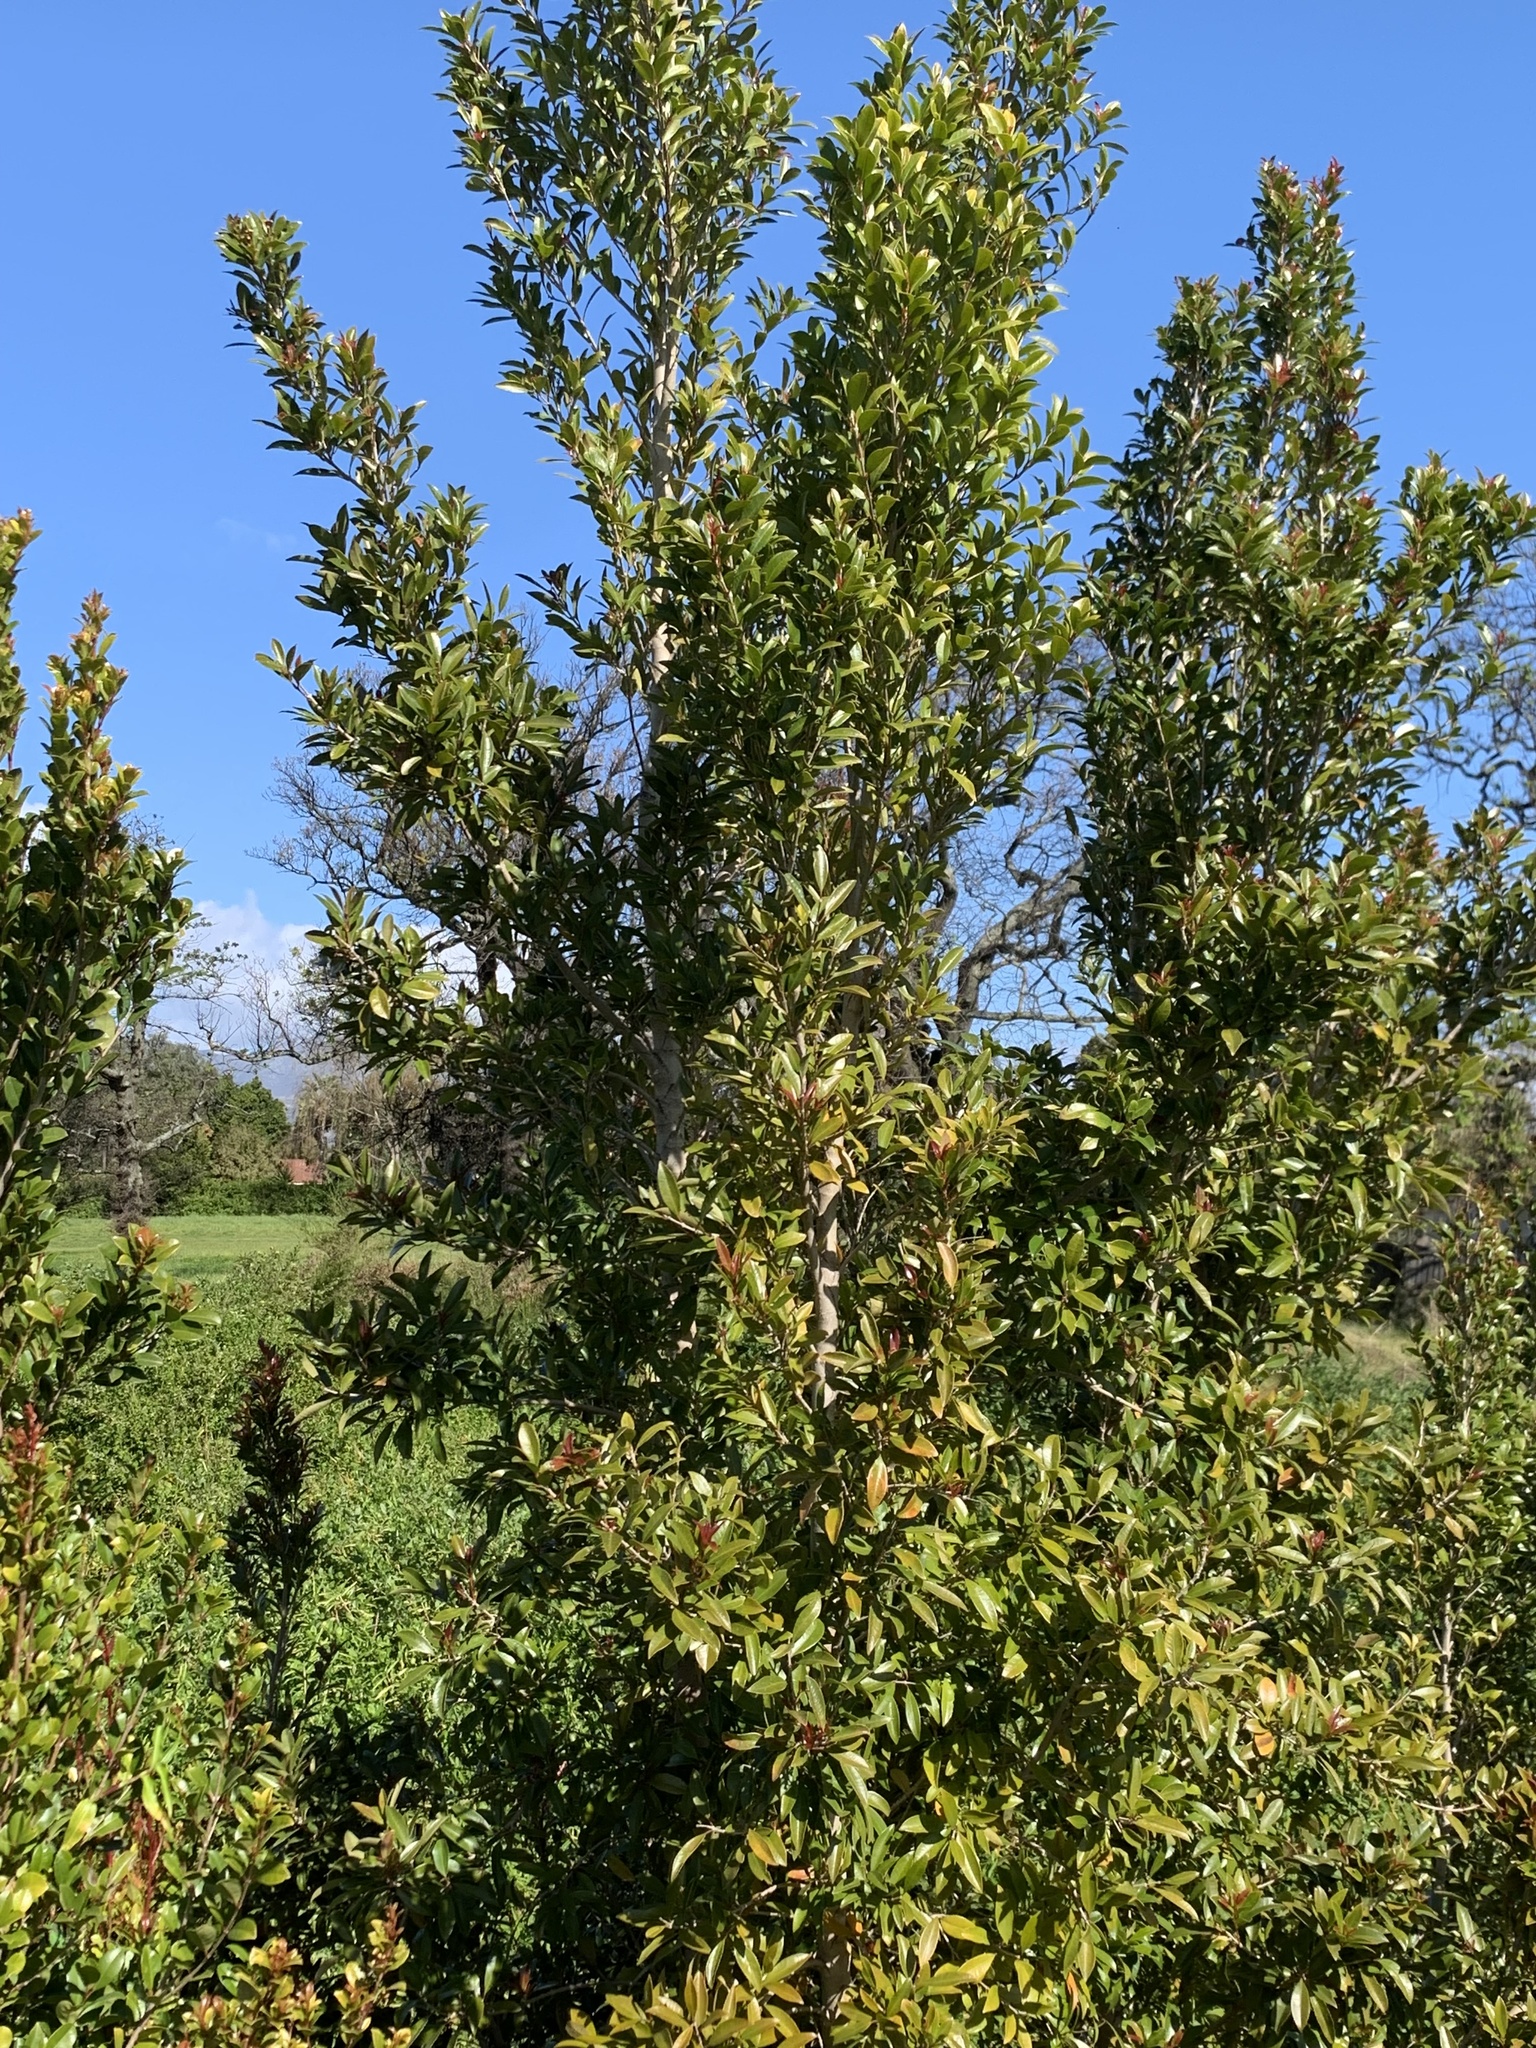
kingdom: Plantae
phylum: Tracheophyta
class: Magnoliopsida
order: Myrtales
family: Myrtaceae
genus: Syzygium
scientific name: Syzygium australe
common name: Australian brush-cherry
